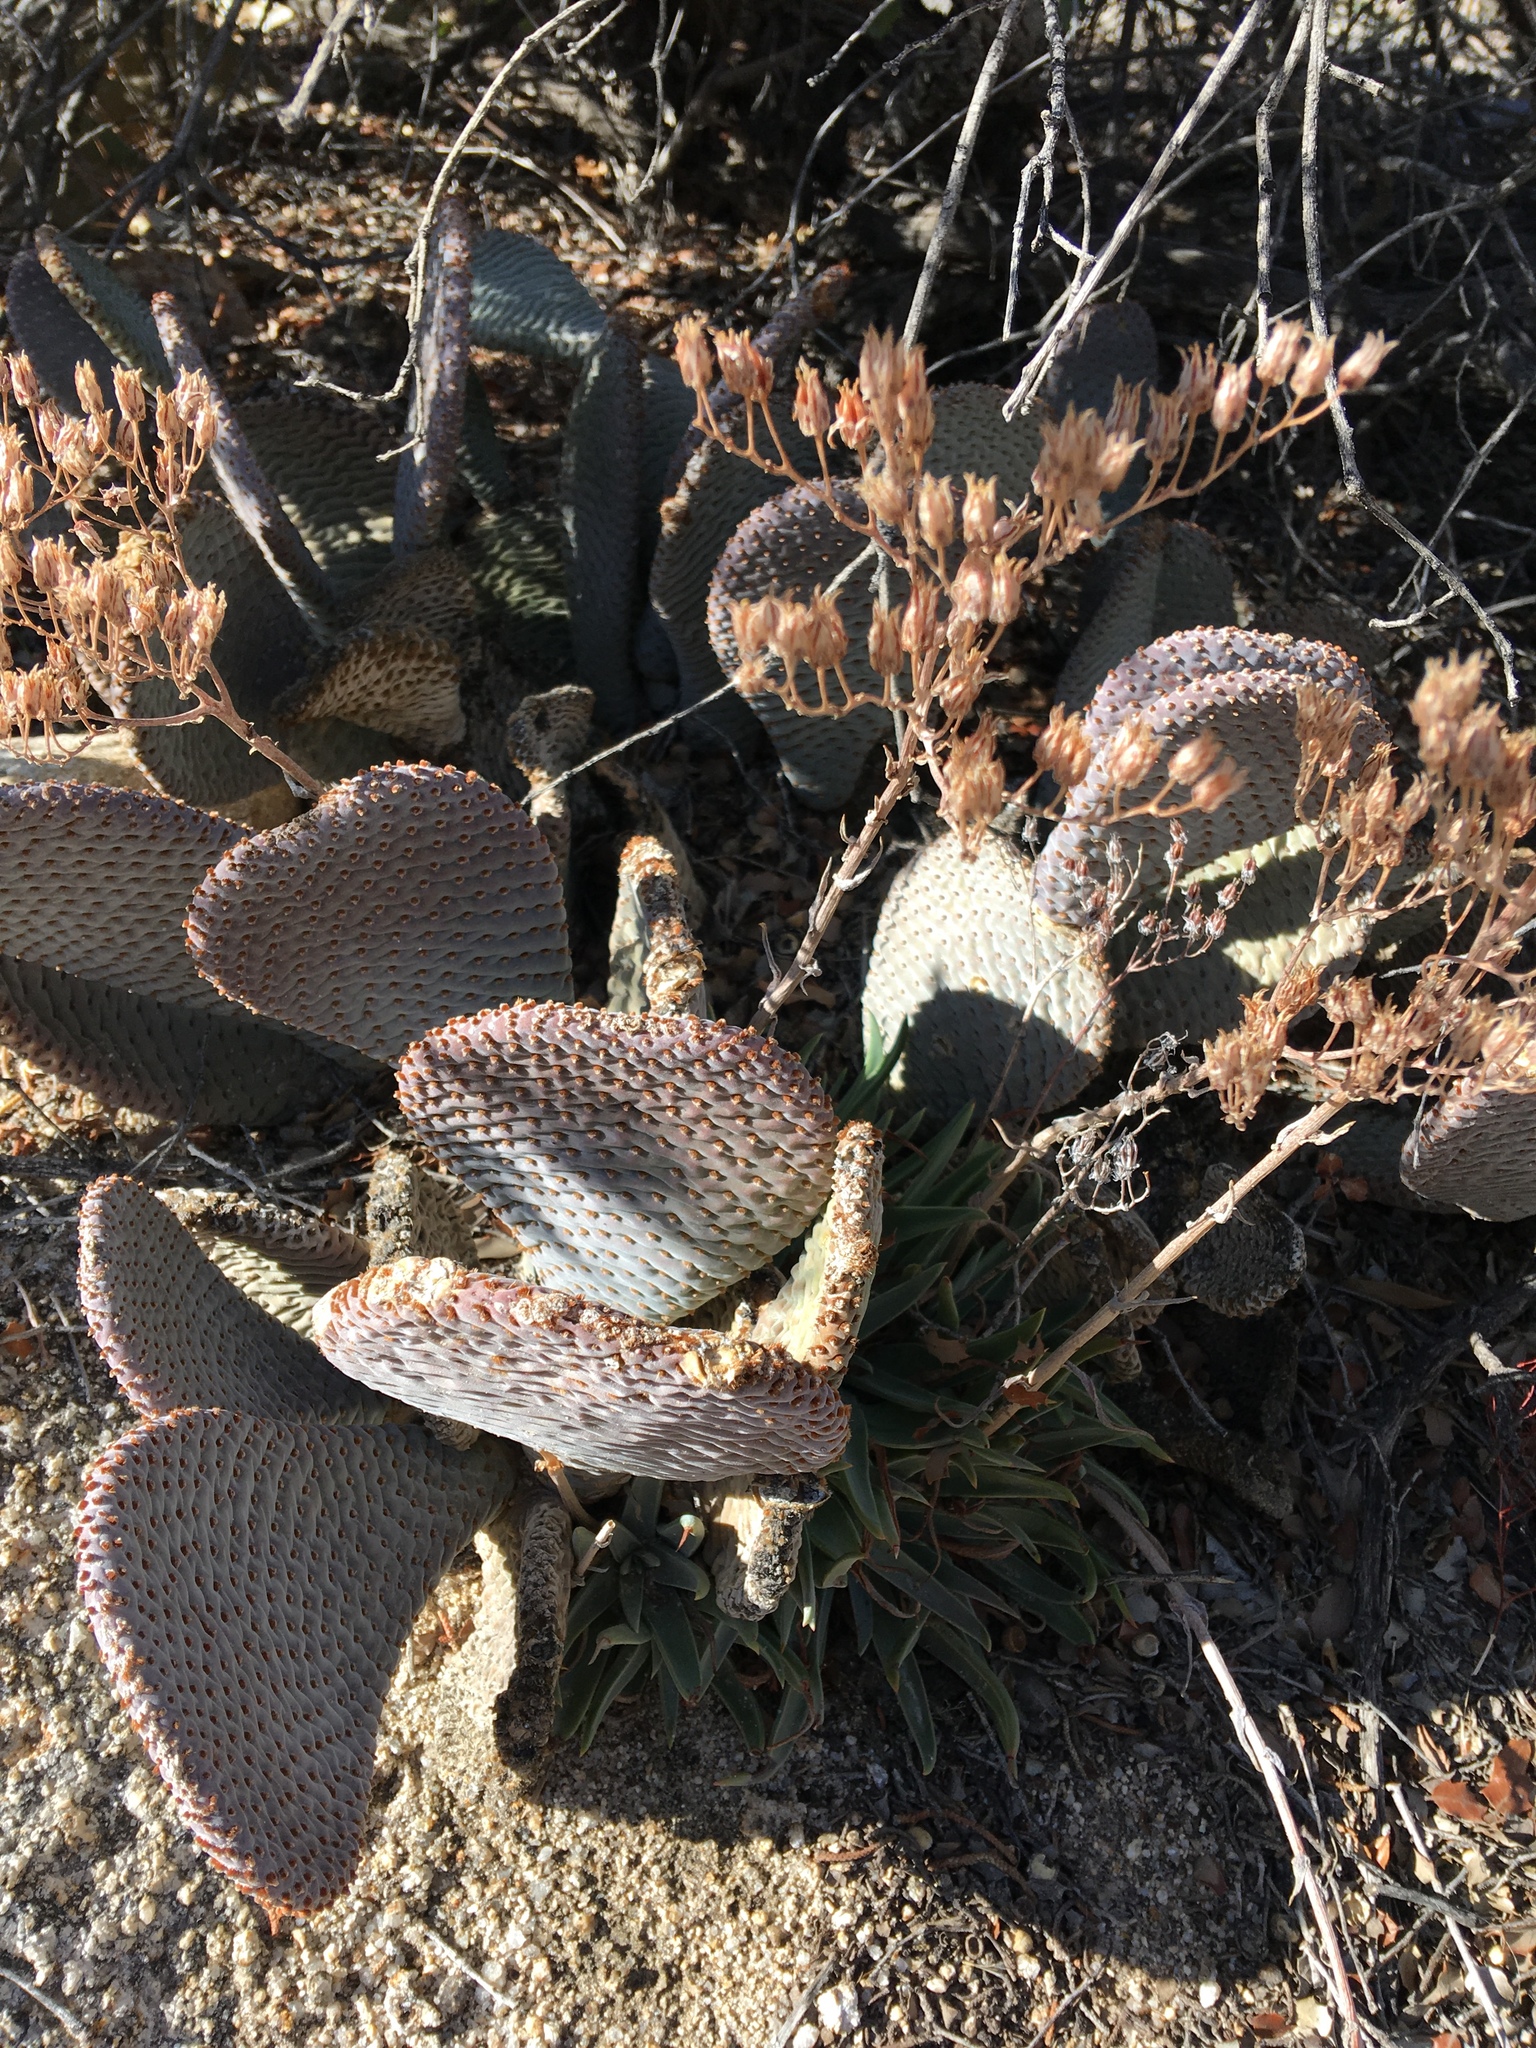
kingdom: Plantae
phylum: Tracheophyta
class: Magnoliopsida
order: Caryophyllales
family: Cactaceae
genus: Opuntia
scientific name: Opuntia basilaris
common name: Beavertail prickly-pear
